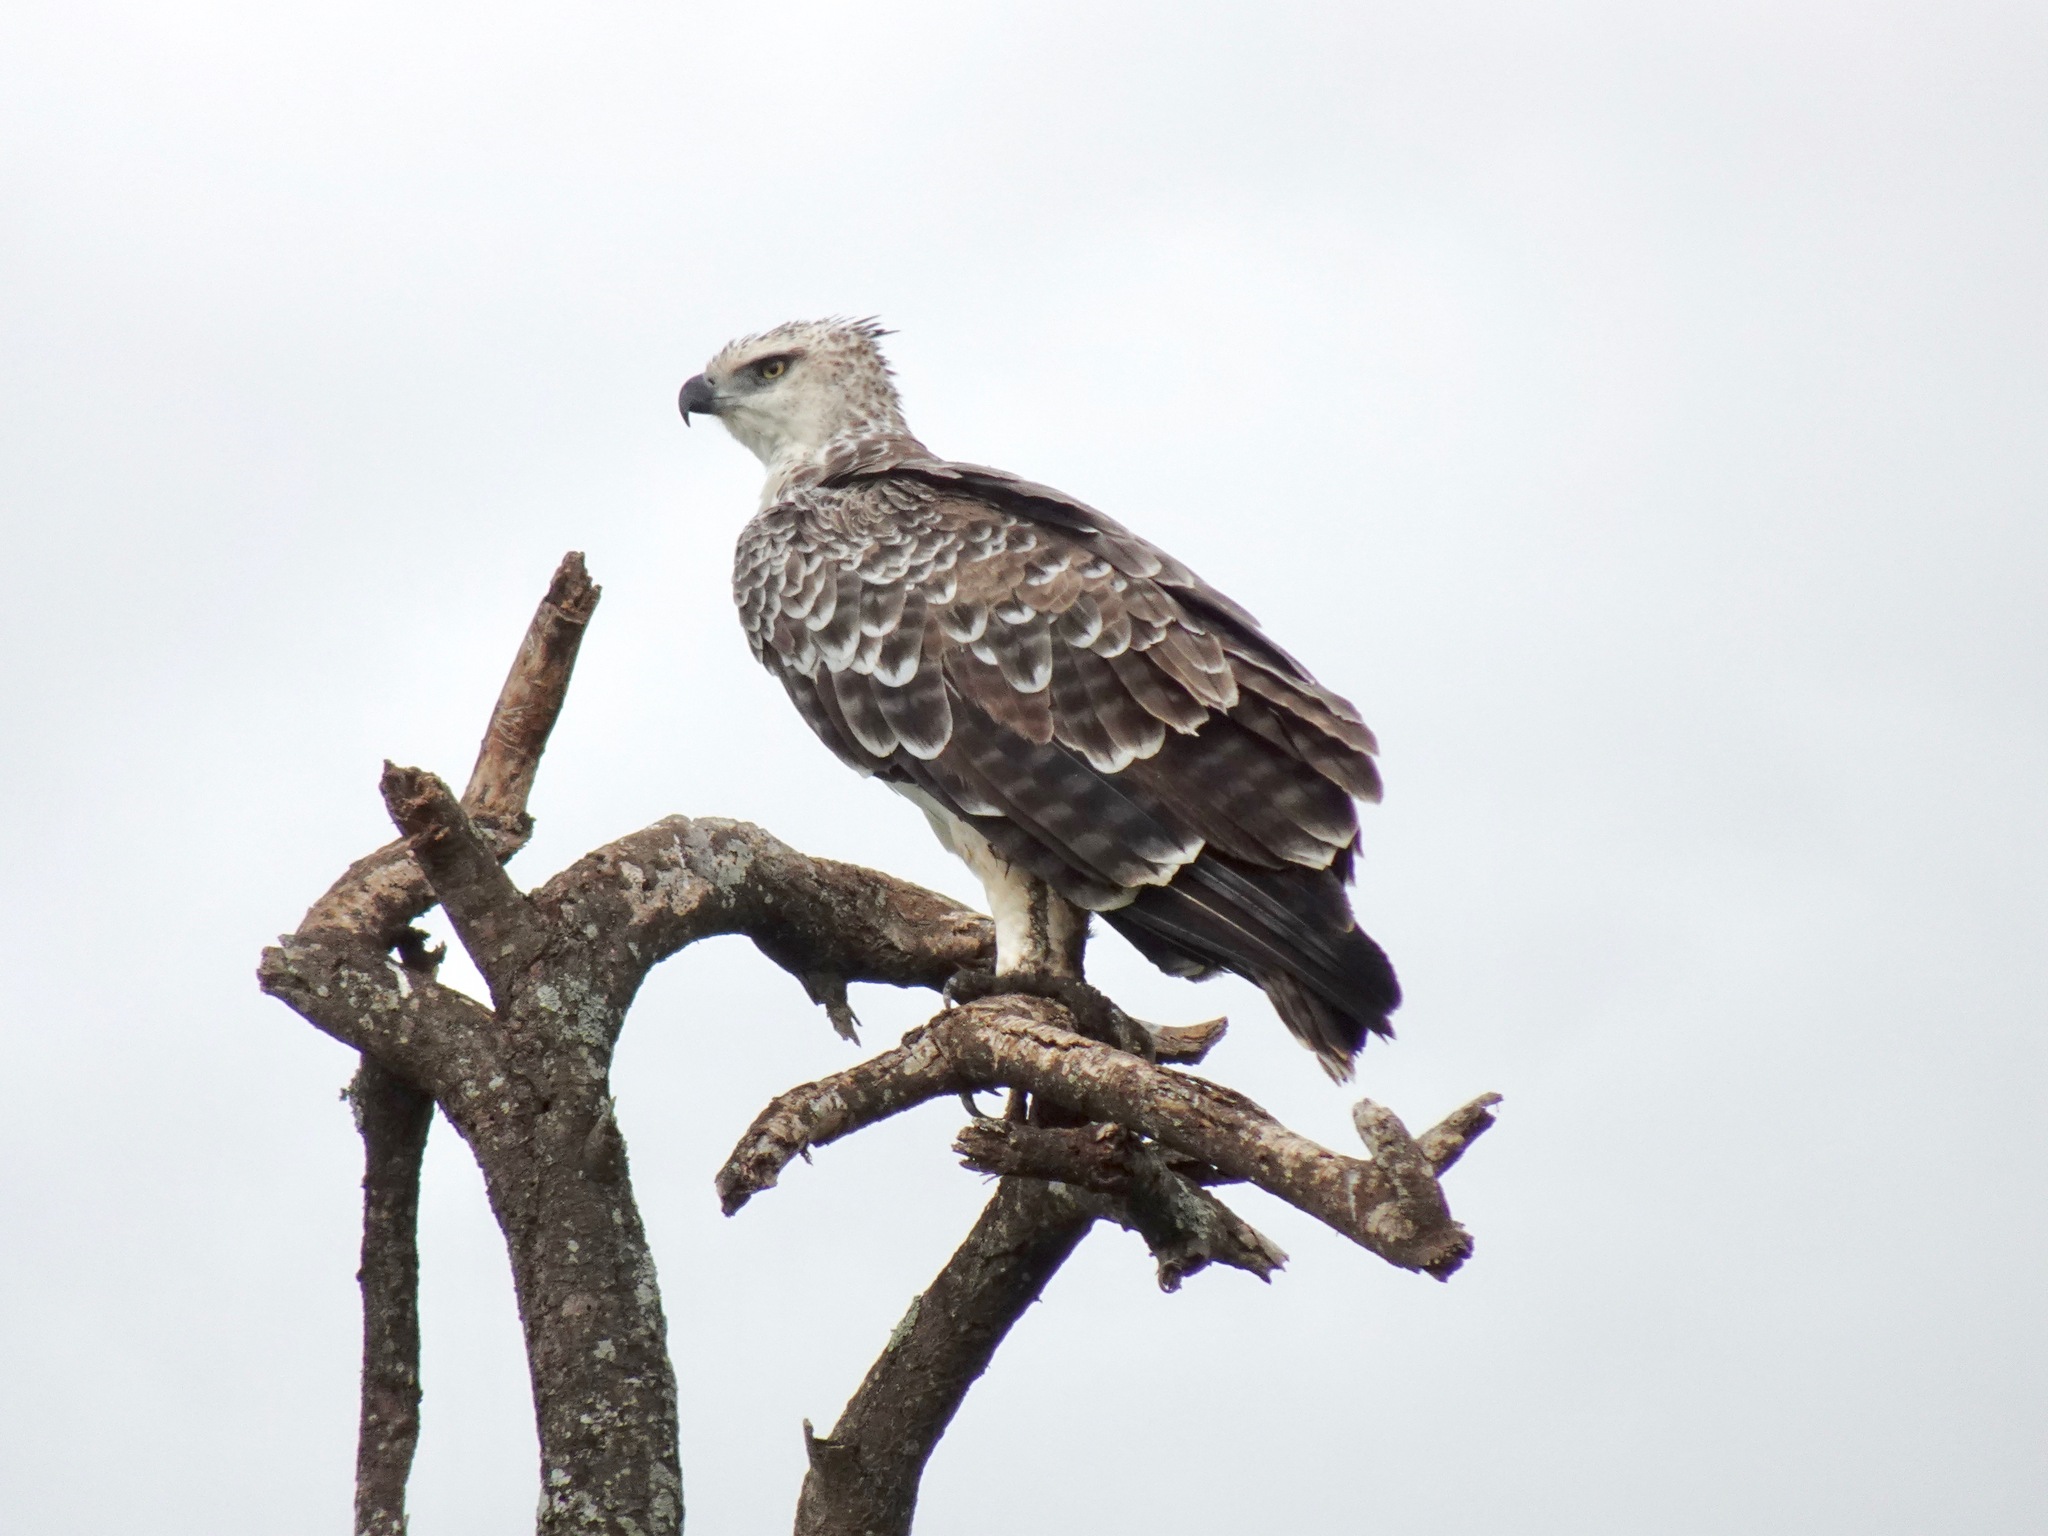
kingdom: Animalia
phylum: Chordata
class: Aves
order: Accipitriformes
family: Accipitridae
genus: Polemaetus
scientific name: Polemaetus bellicosus
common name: Martial eagle
